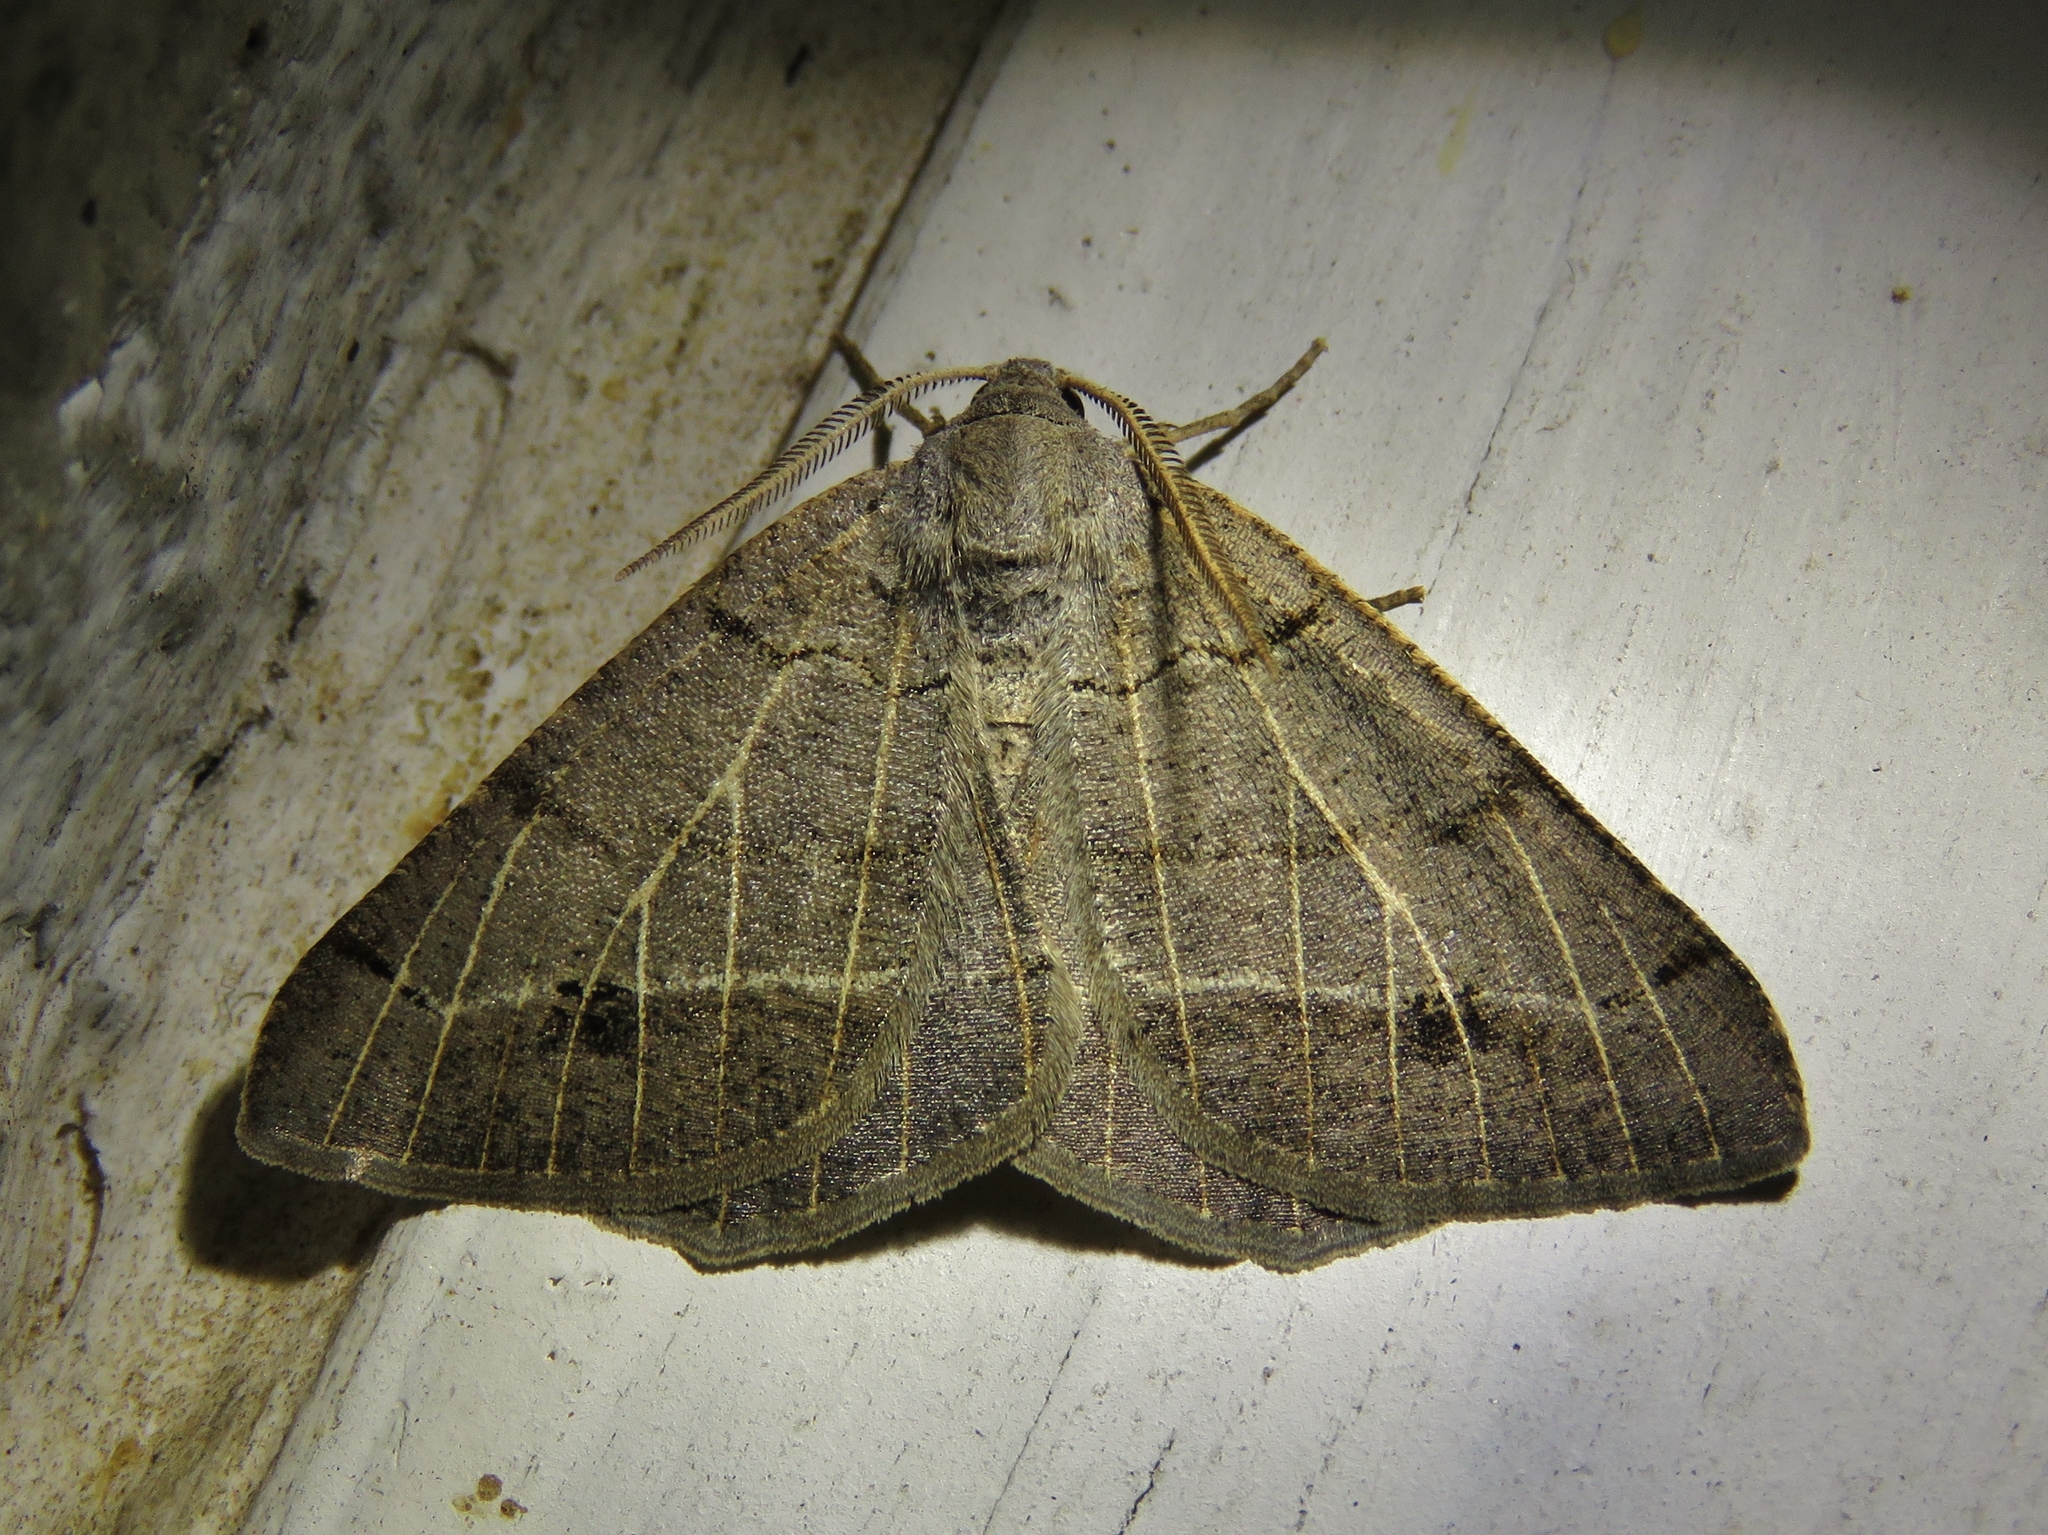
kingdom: Animalia
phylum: Arthropoda
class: Insecta
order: Lepidoptera
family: Geometridae
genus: Isturgia
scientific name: Isturgia dislocaria
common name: Pale-viened enconista
